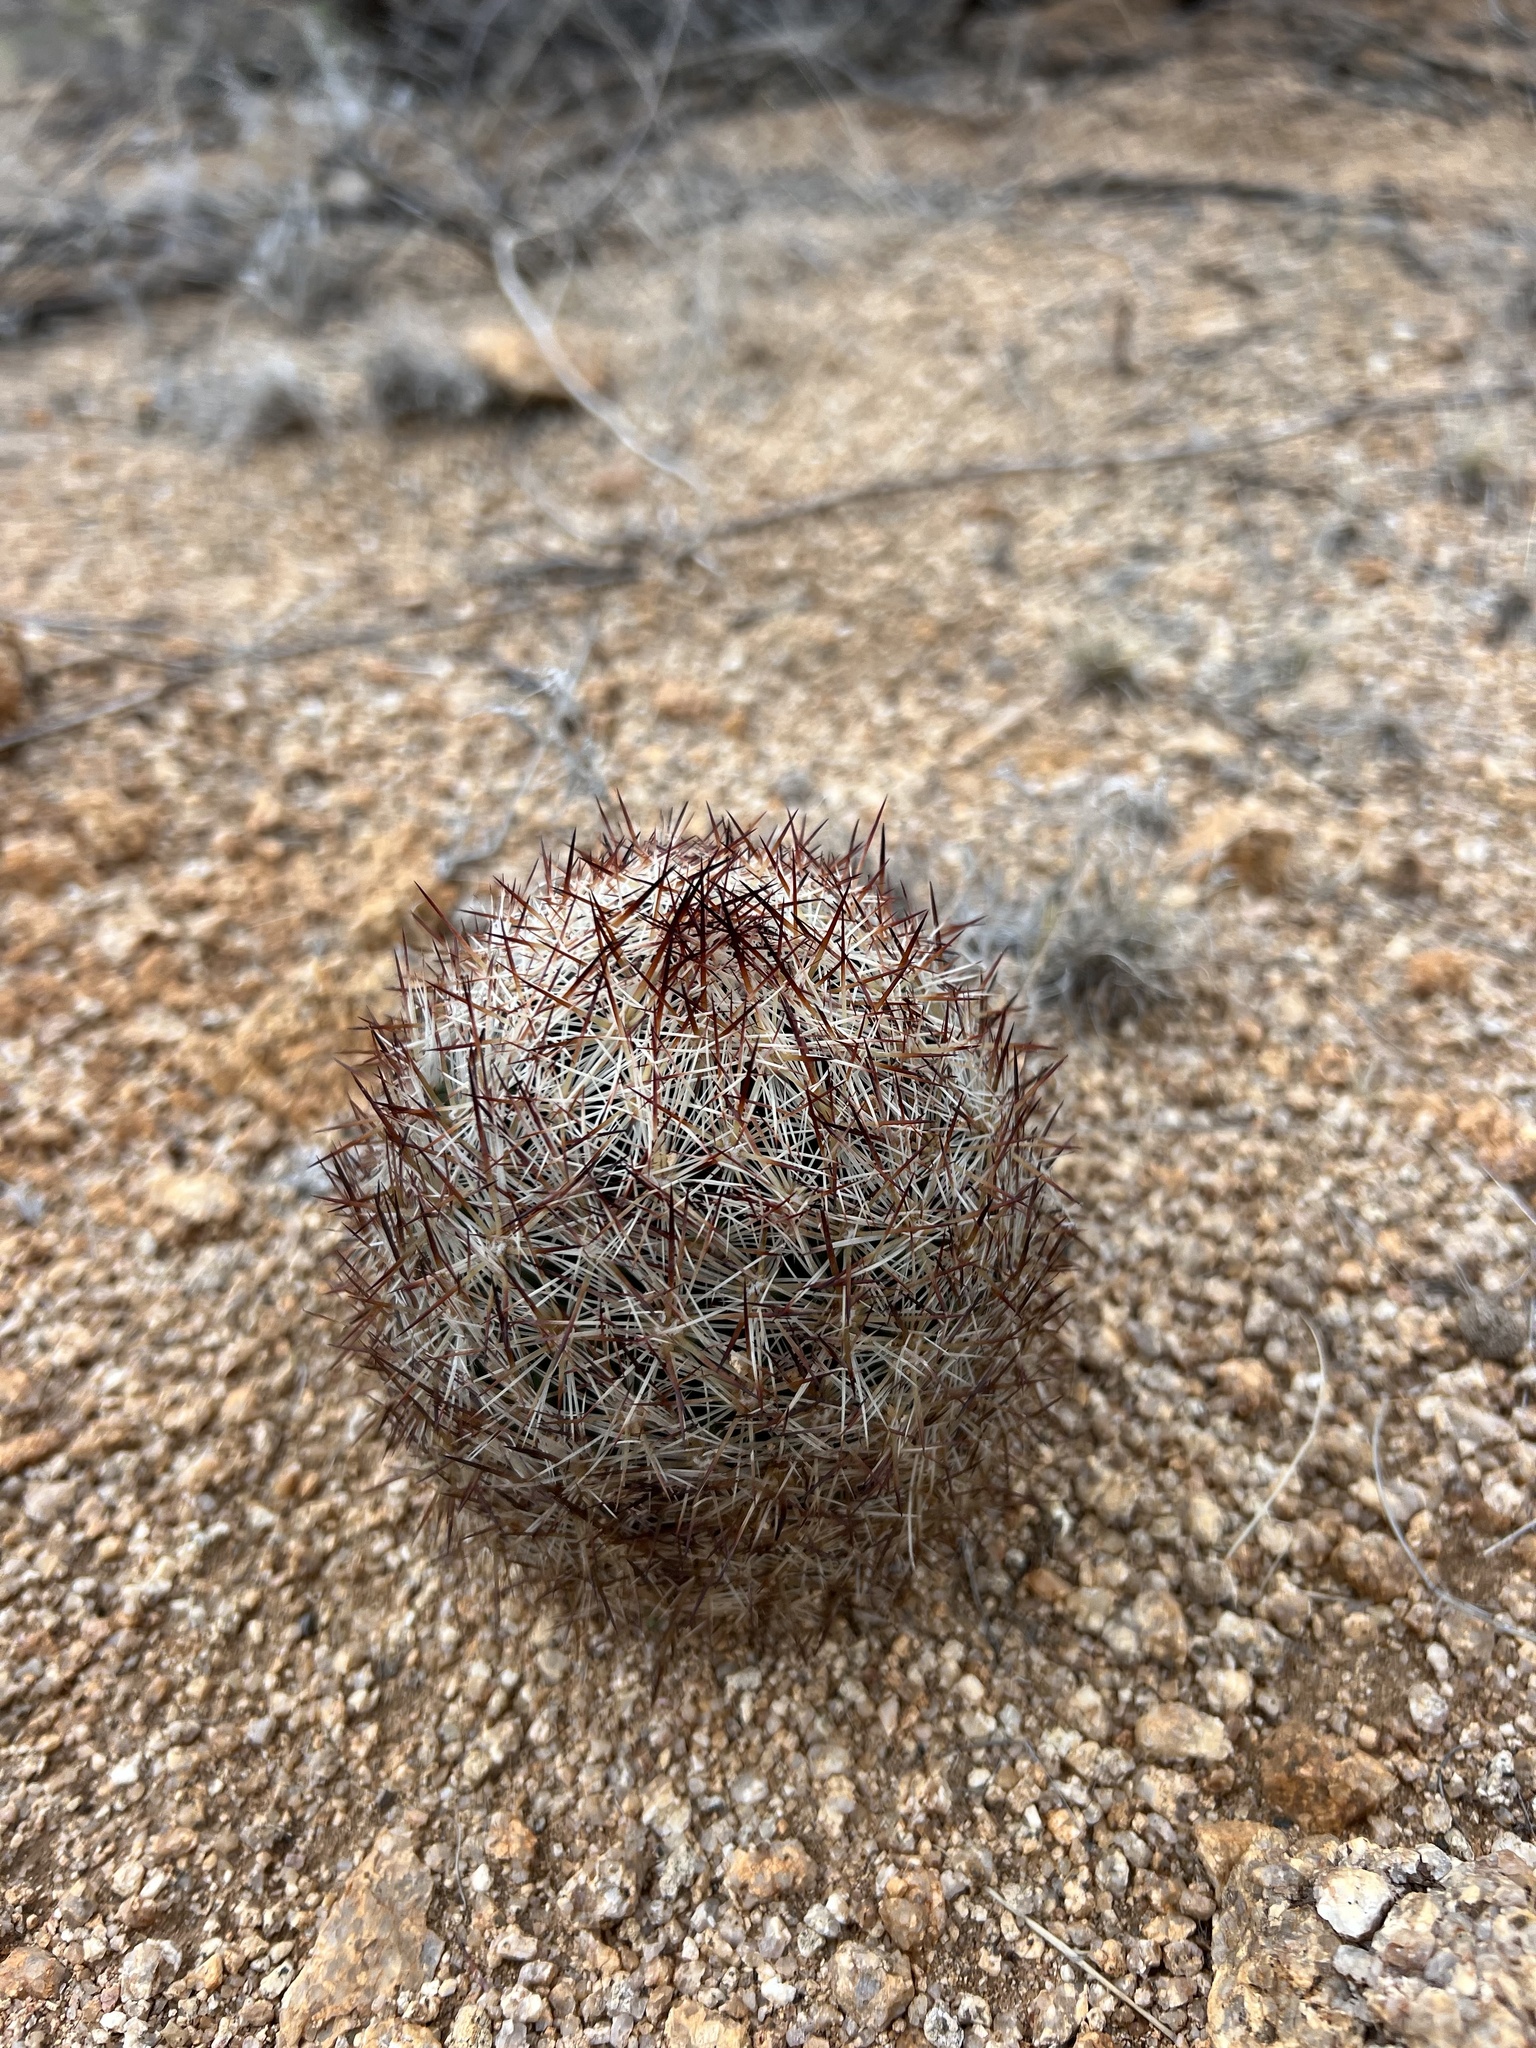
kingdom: Plantae
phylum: Tracheophyta
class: Magnoliopsida
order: Caryophyllales
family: Cactaceae
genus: Pelecyphora
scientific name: Pelecyphora vivipara
